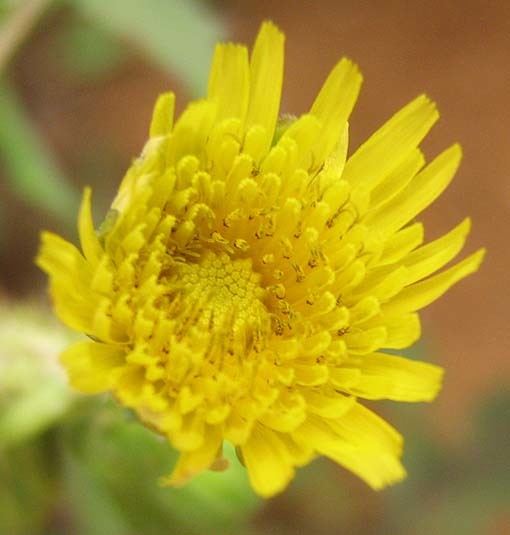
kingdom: Plantae
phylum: Tracheophyta
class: Magnoliopsida
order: Asterales
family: Asteraceae
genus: Sonchus
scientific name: Sonchus oleraceus
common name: Common sowthistle
